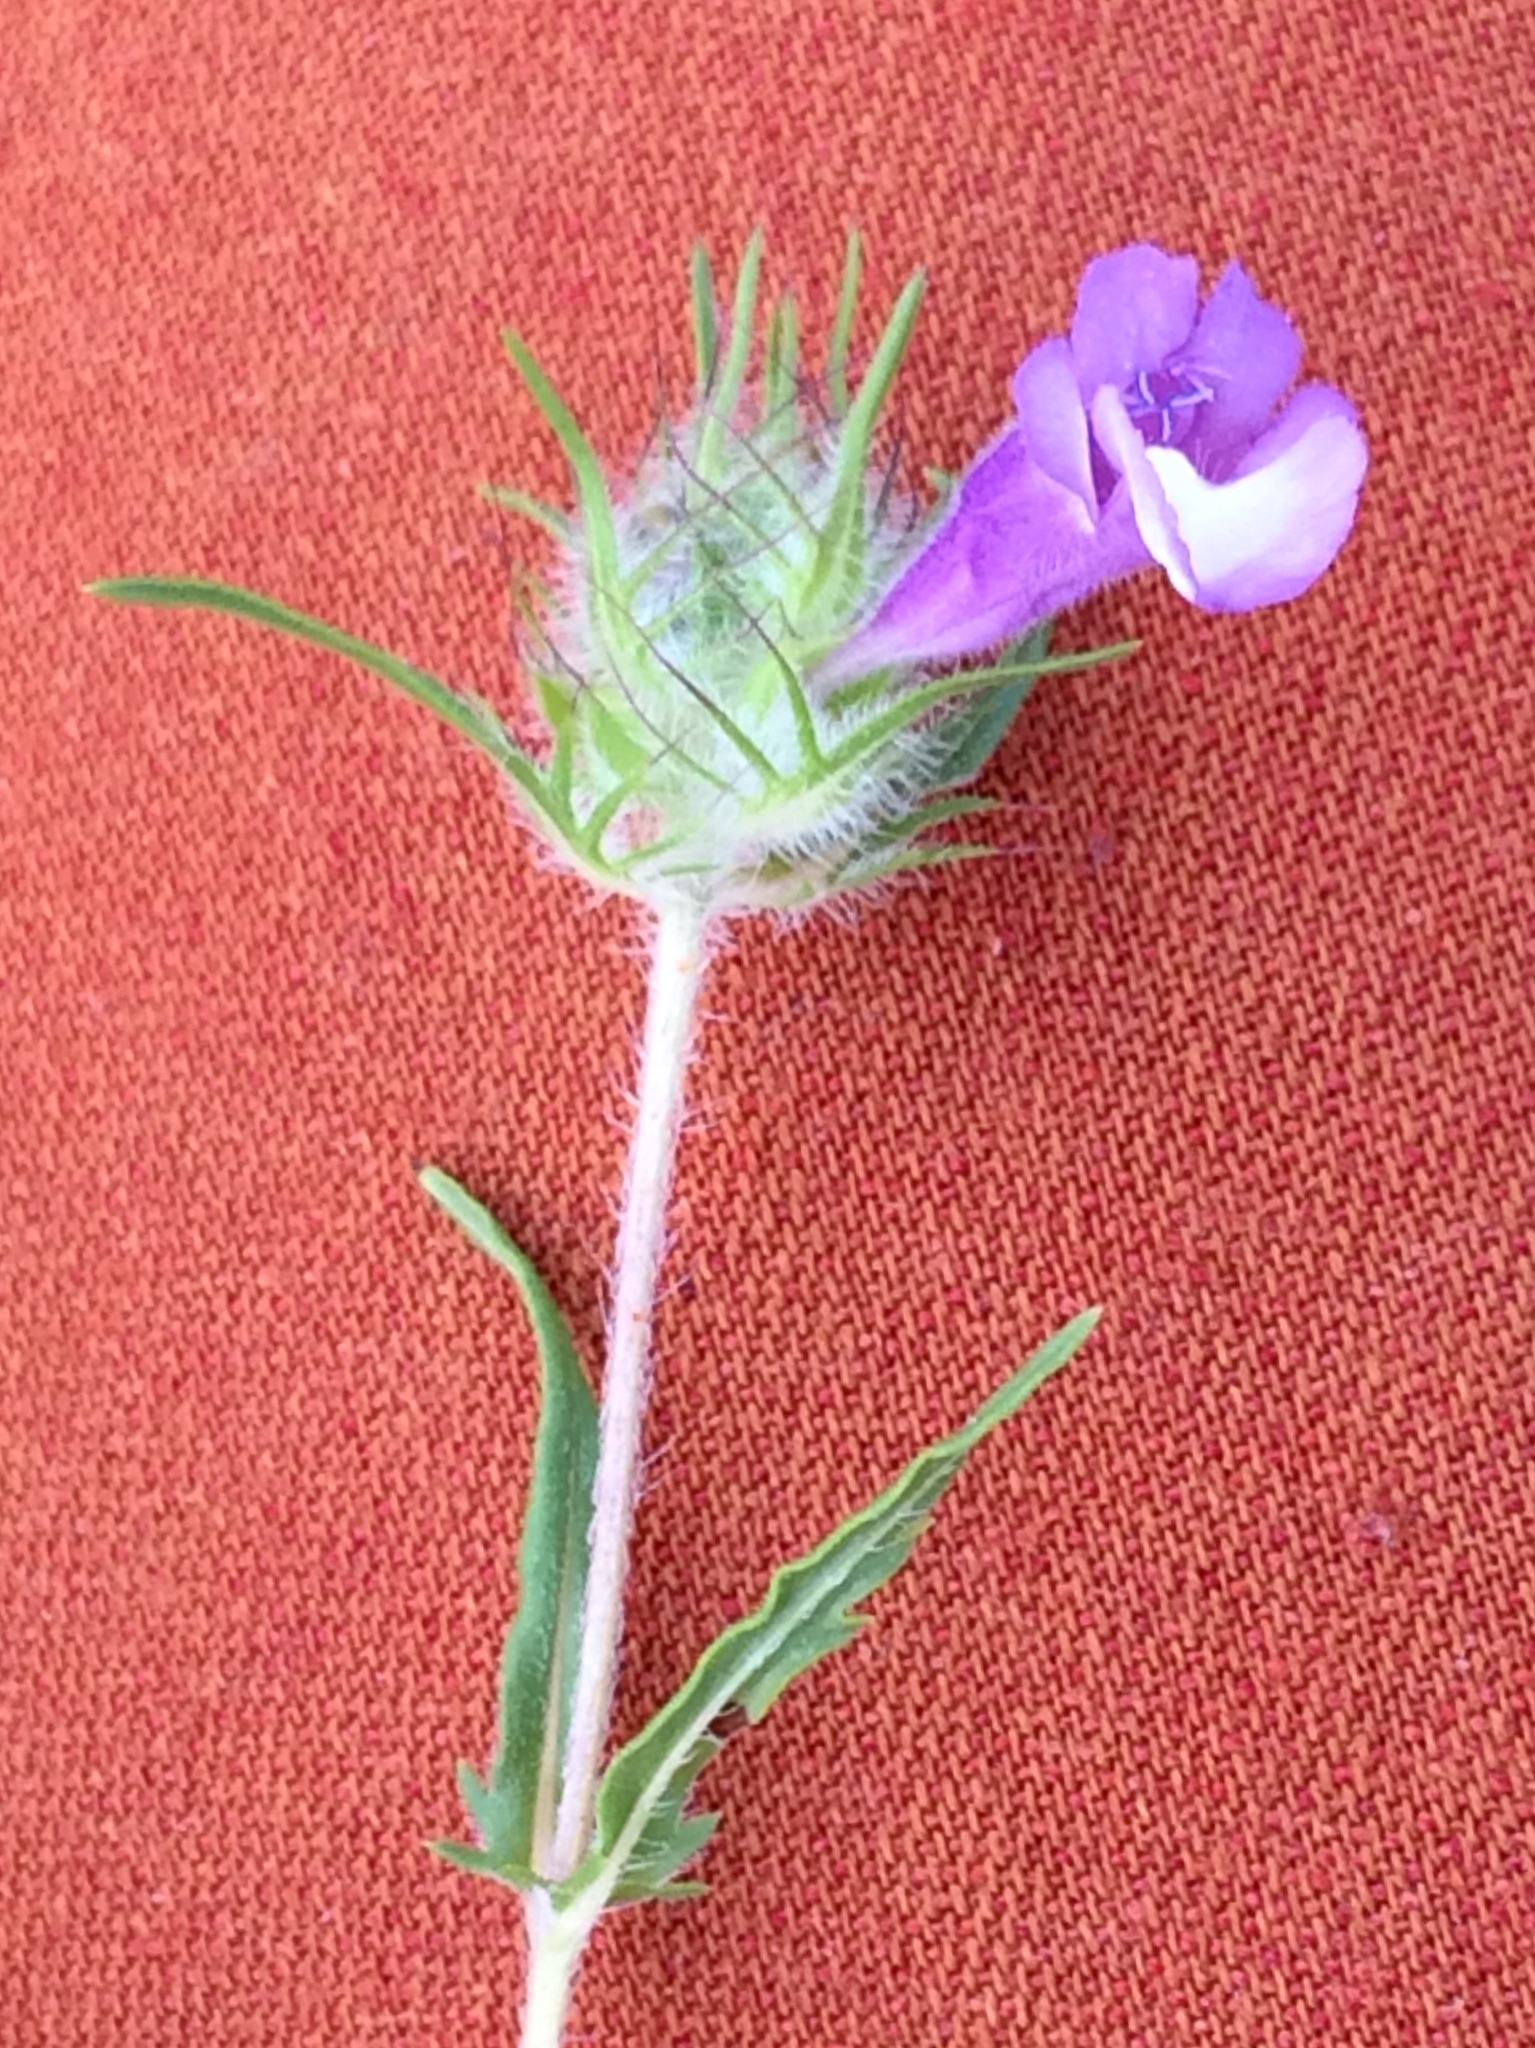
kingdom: Plantae
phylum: Tracheophyta
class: Magnoliopsida
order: Lamiales
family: Lamiaceae
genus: Cleonia
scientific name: Cleonia lusitanica
